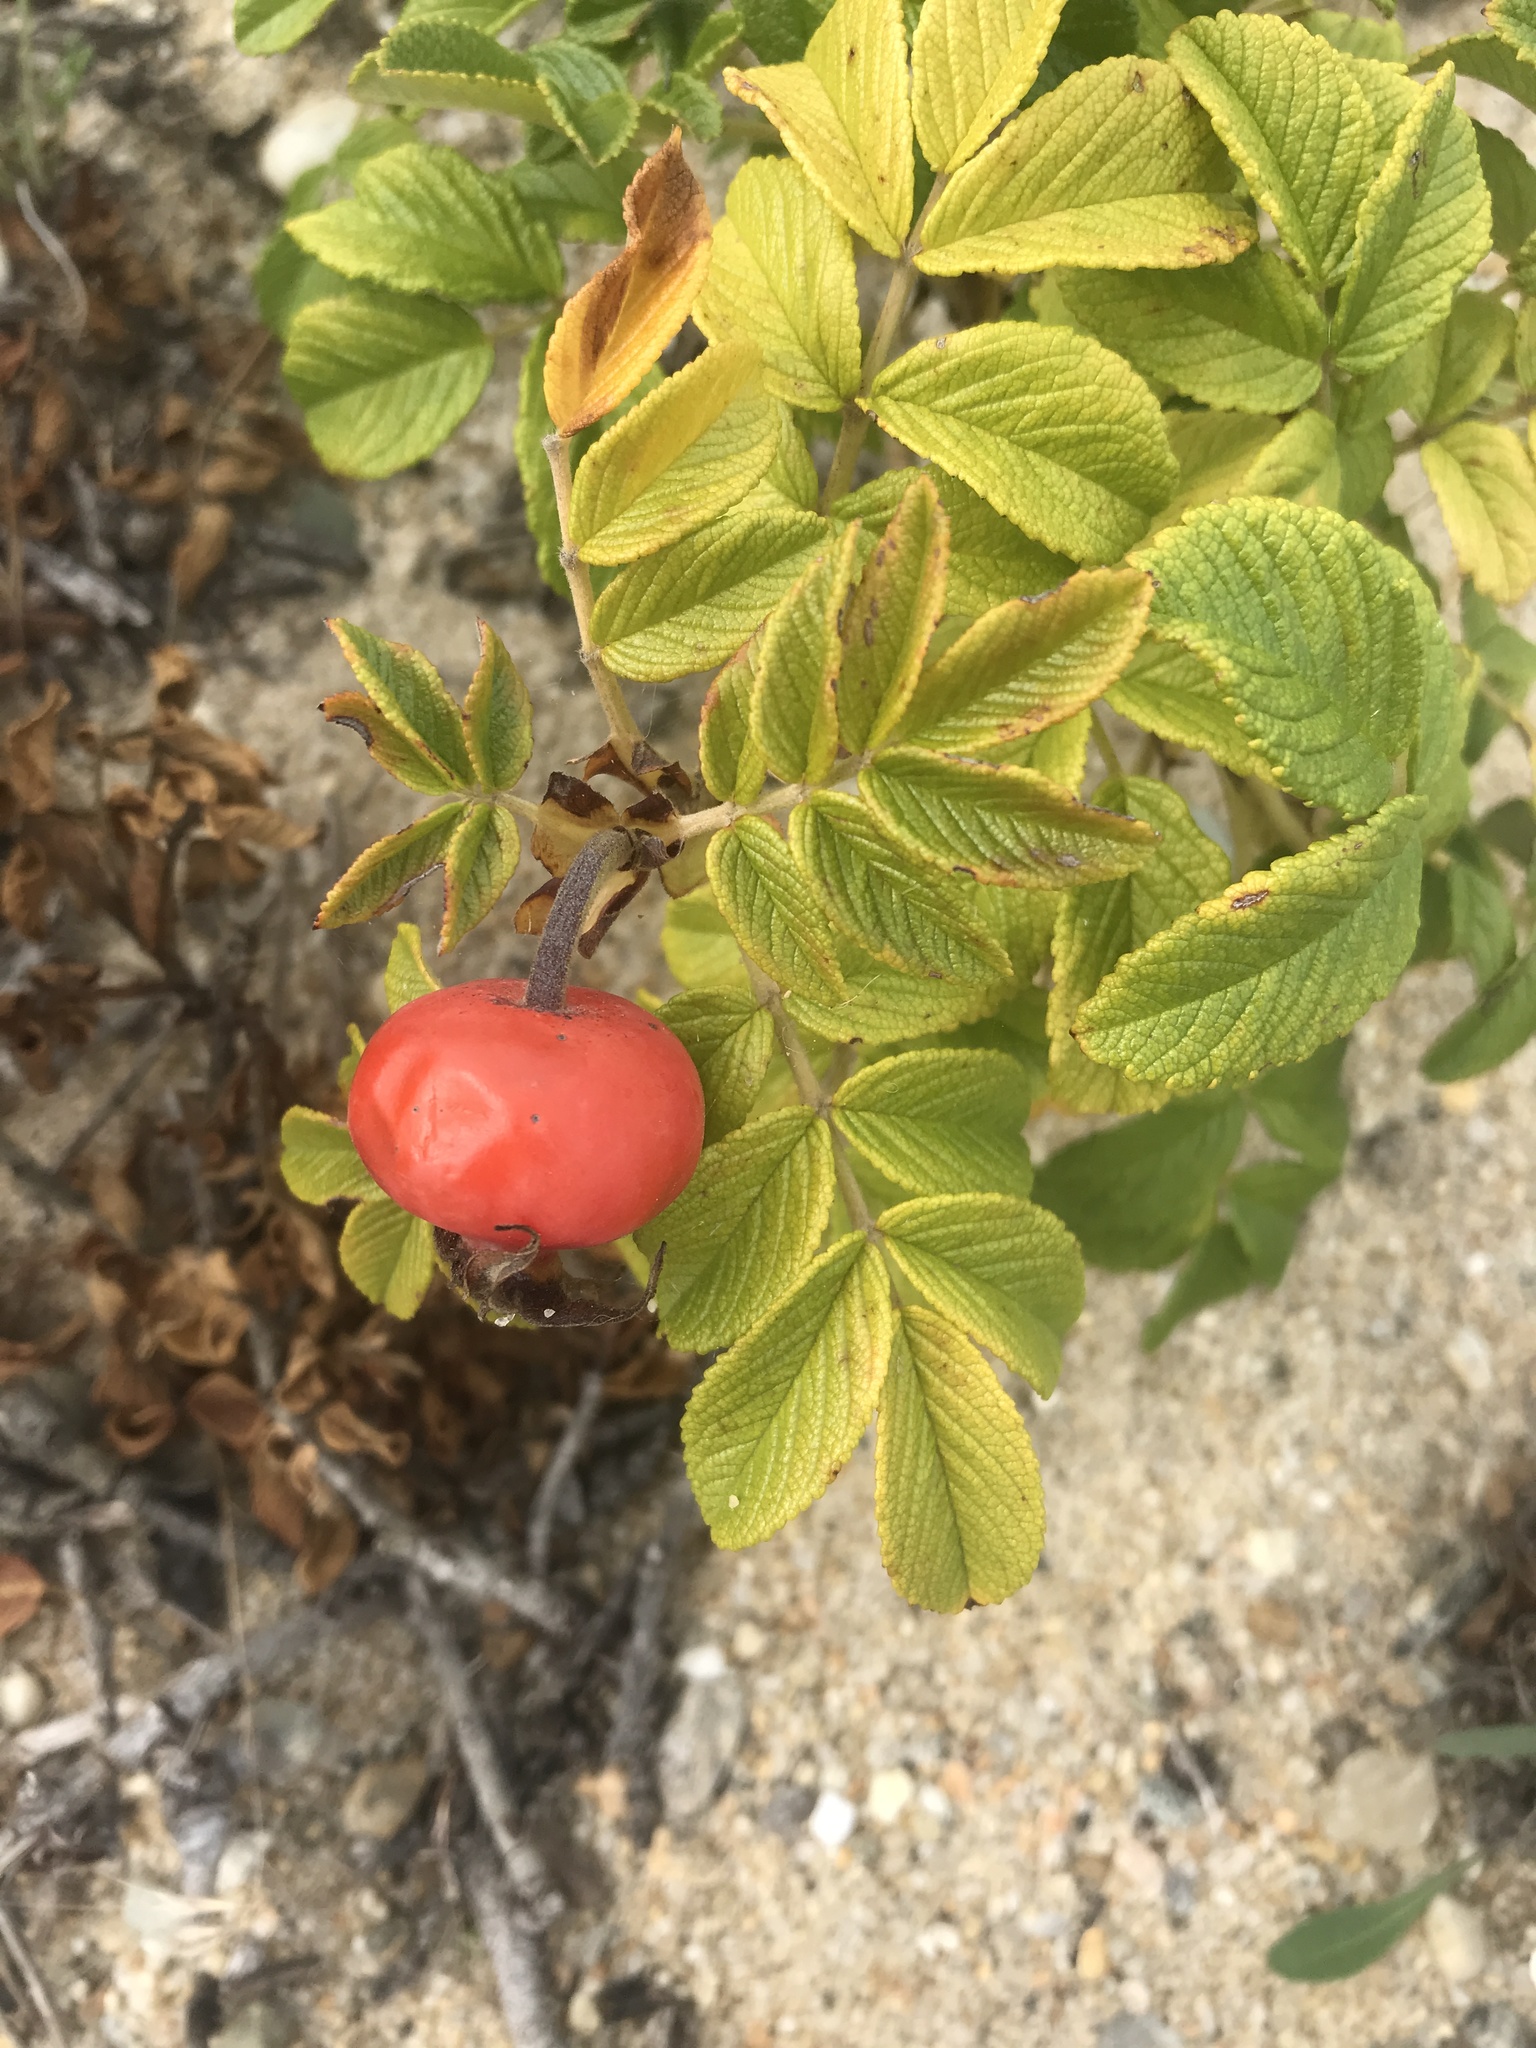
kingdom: Plantae
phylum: Tracheophyta
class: Magnoliopsida
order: Rosales
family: Rosaceae
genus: Rosa
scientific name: Rosa rugosa
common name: Japanese rose
